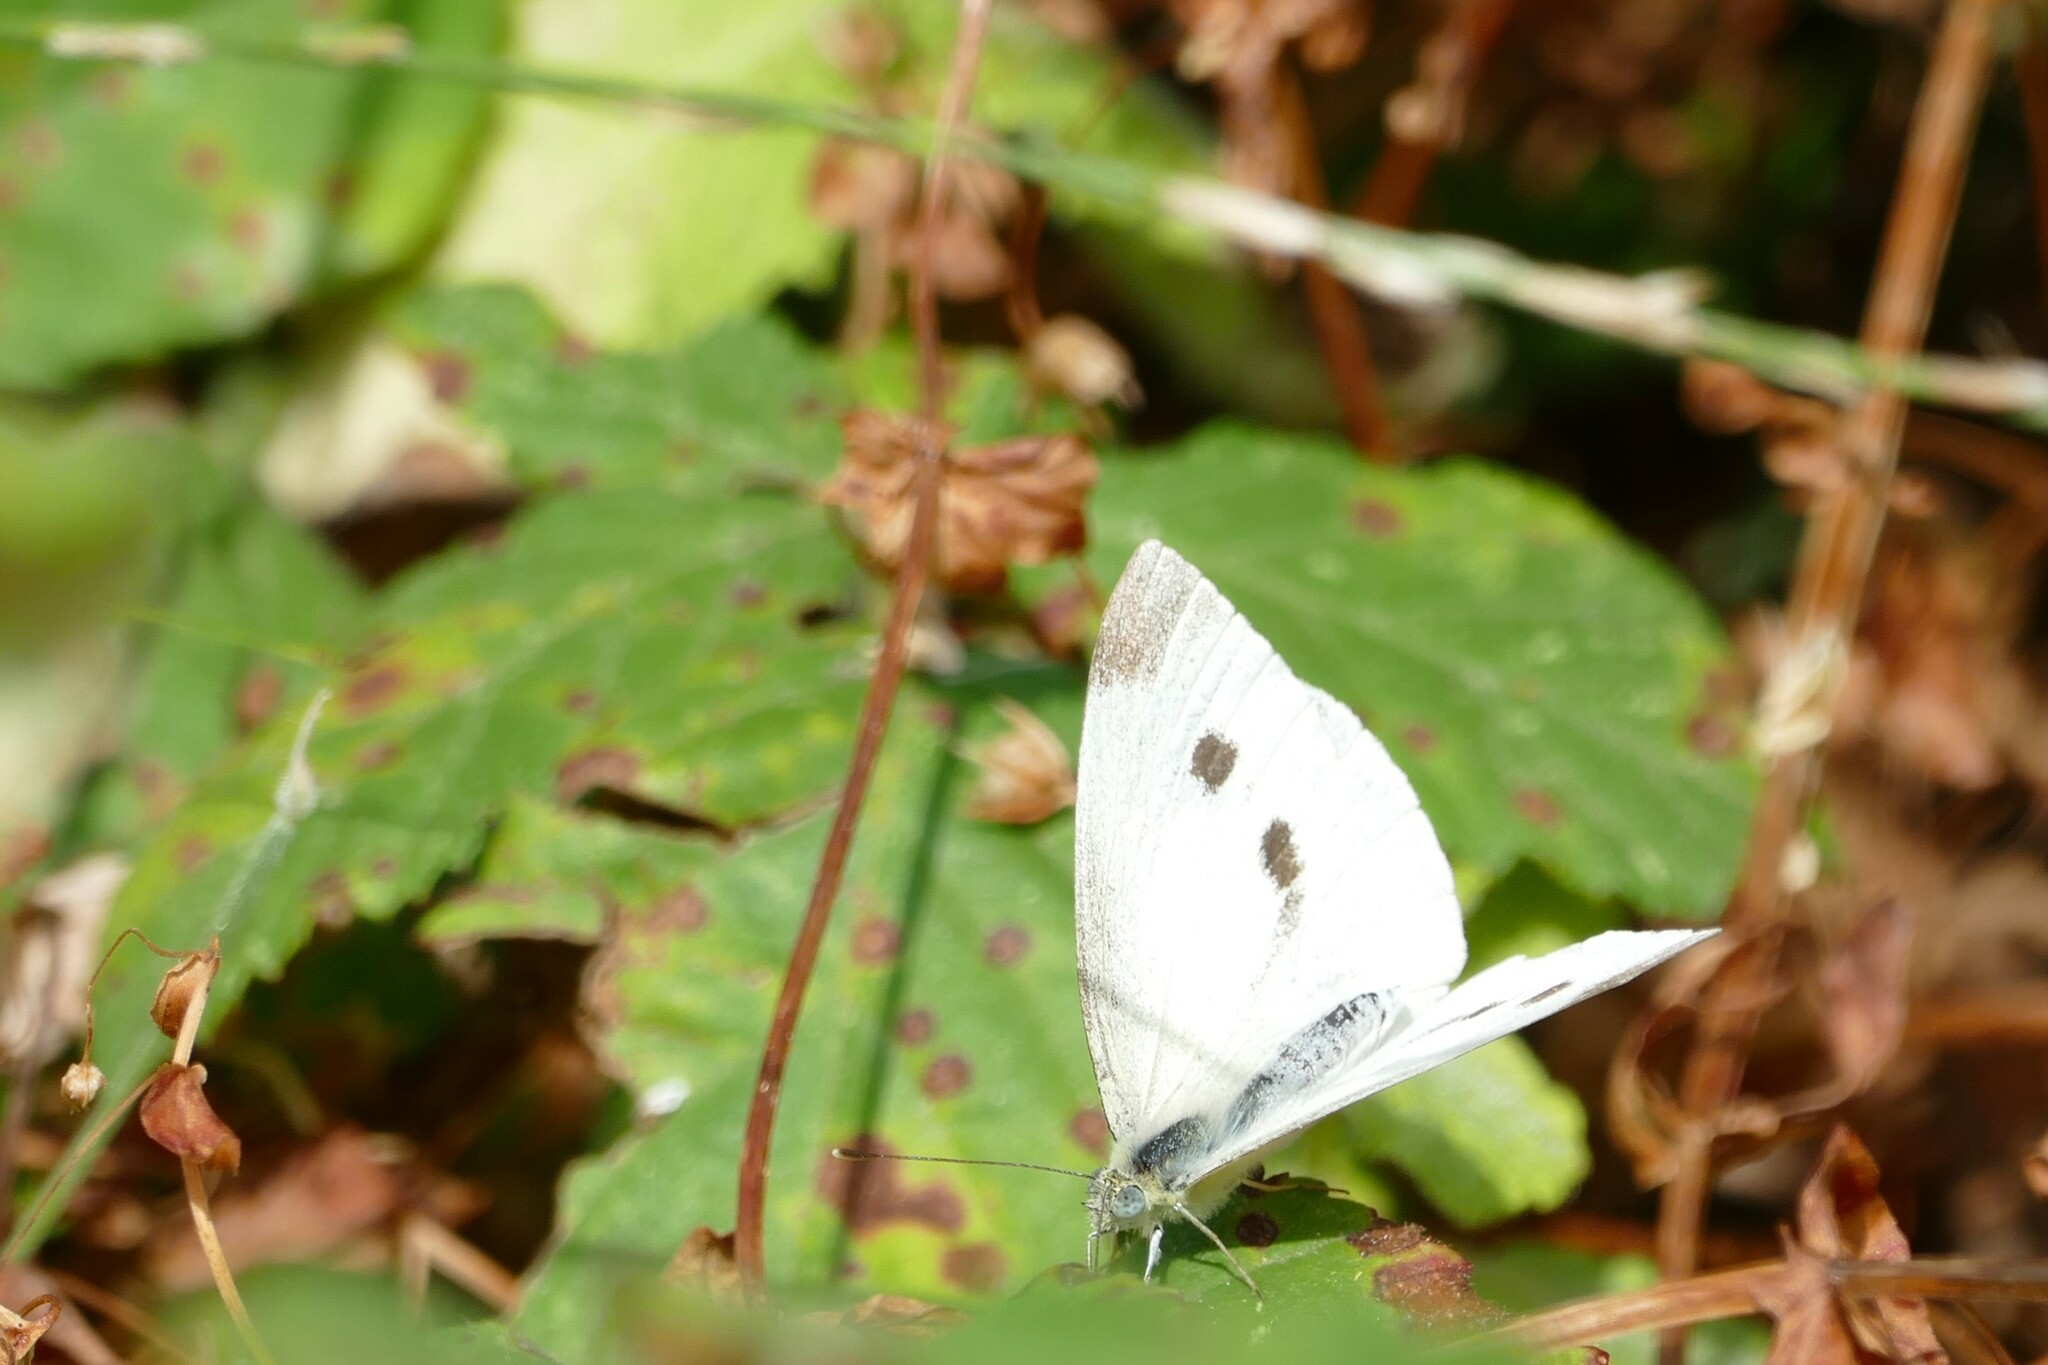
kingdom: Animalia
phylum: Arthropoda
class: Insecta
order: Lepidoptera
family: Pieridae
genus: Pieris
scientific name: Pieris rapae
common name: Small white
